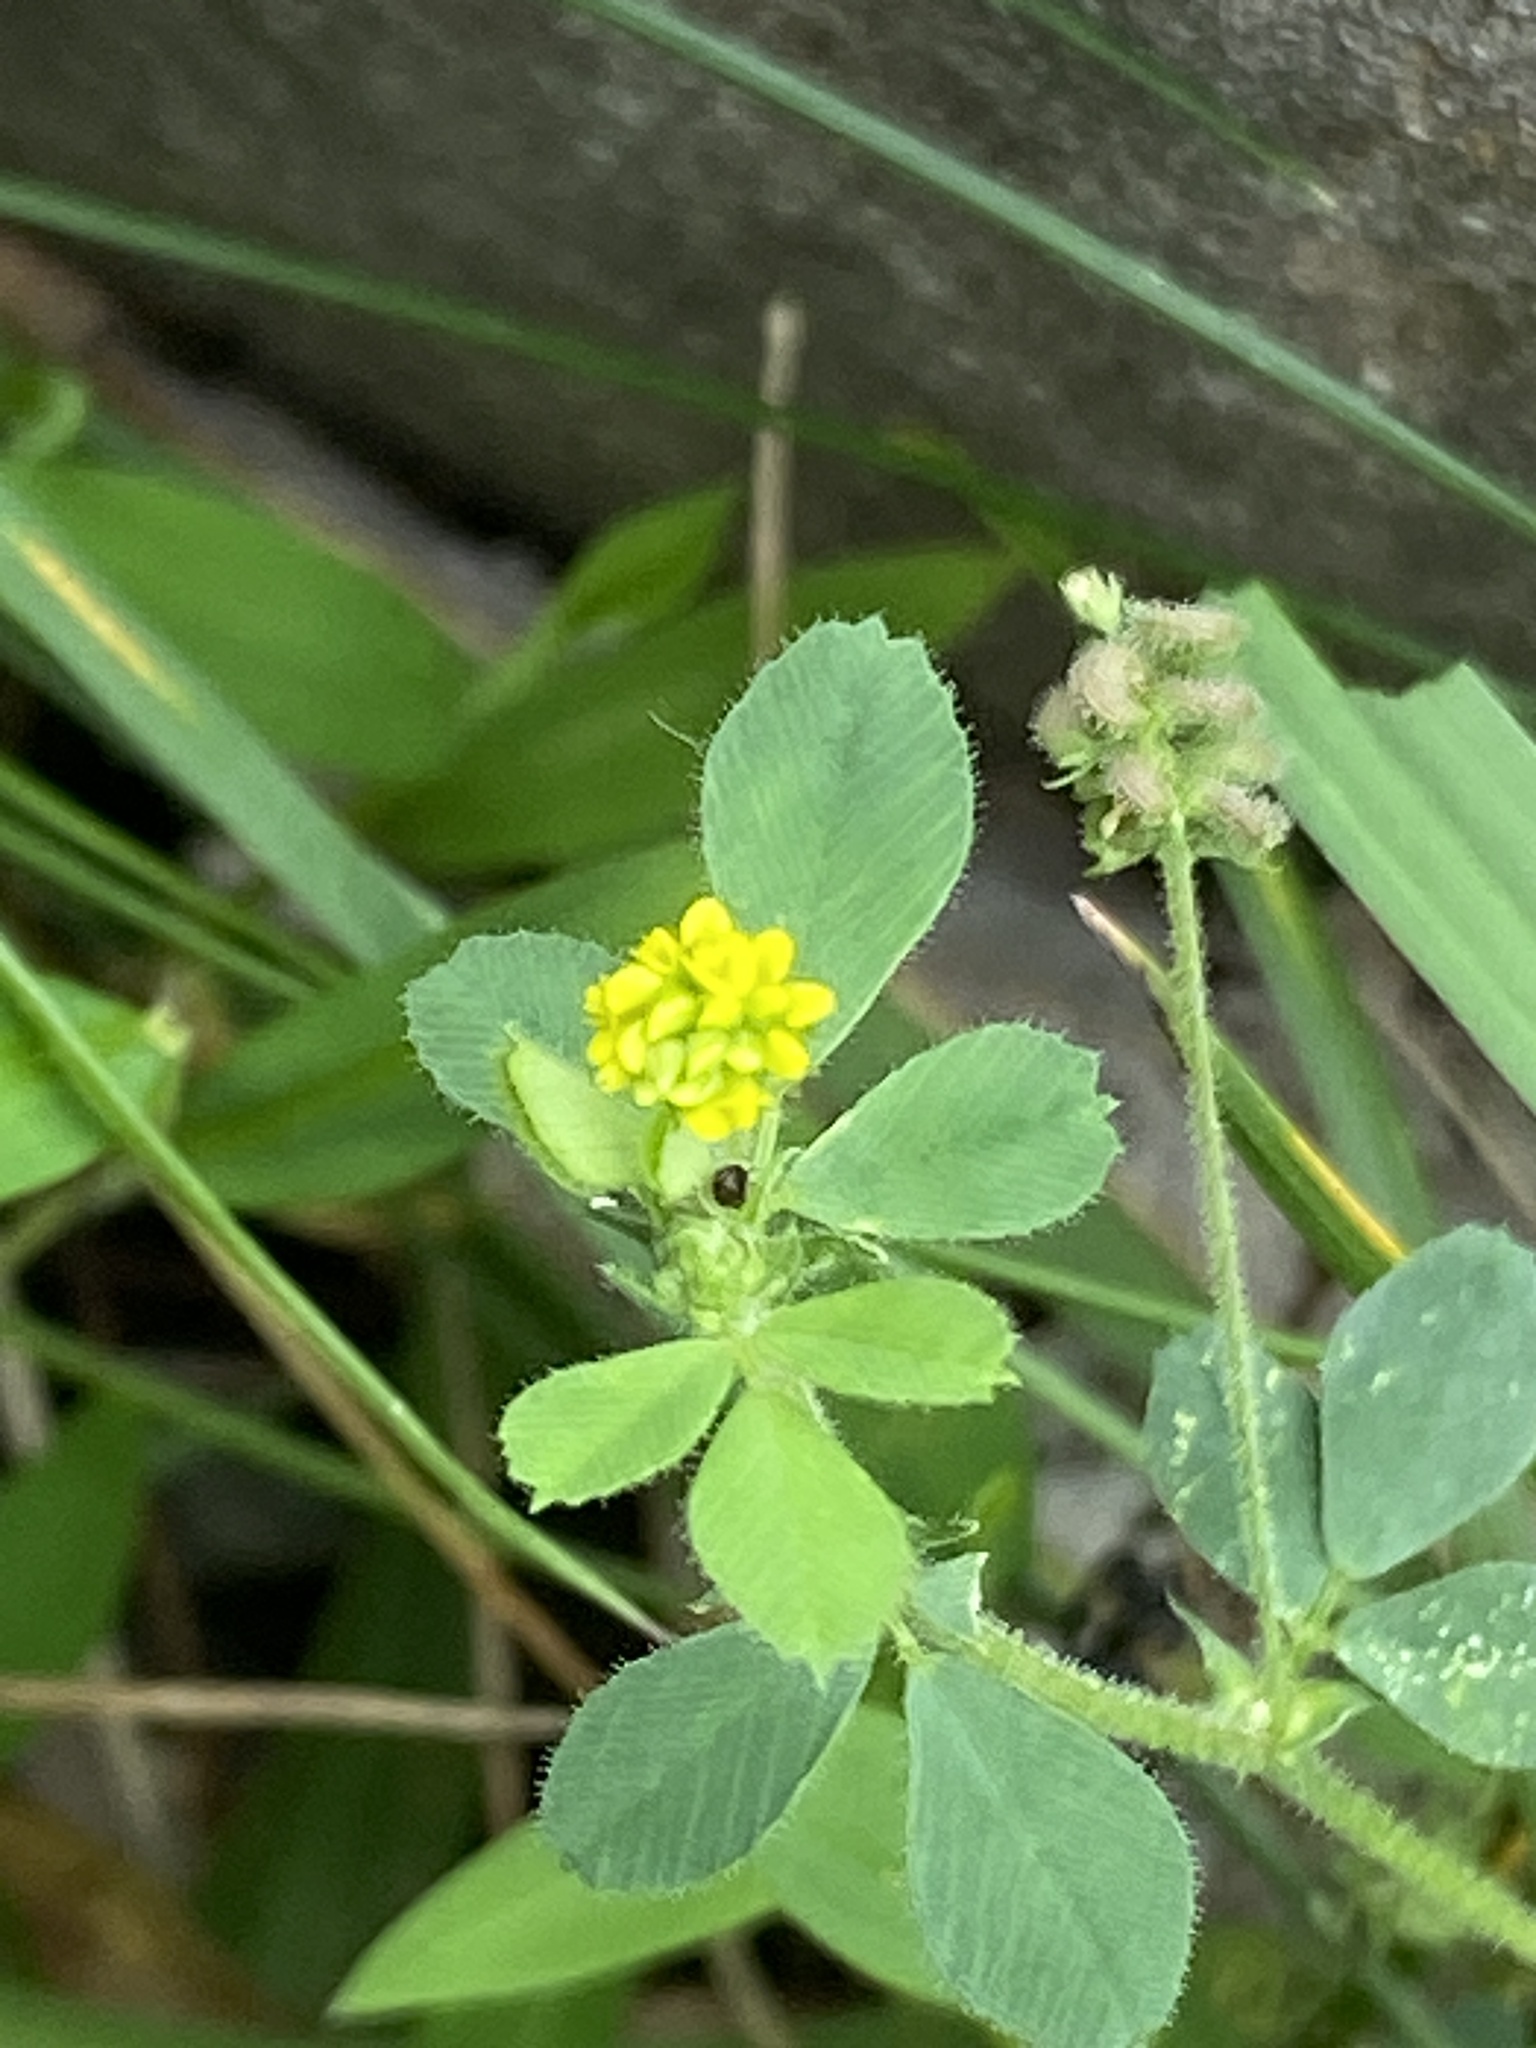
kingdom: Plantae
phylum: Tracheophyta
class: Magnoliopsida
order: Fabales
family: Fabaceae
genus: Medicago
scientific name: Medicago lupulina
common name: Black medick
